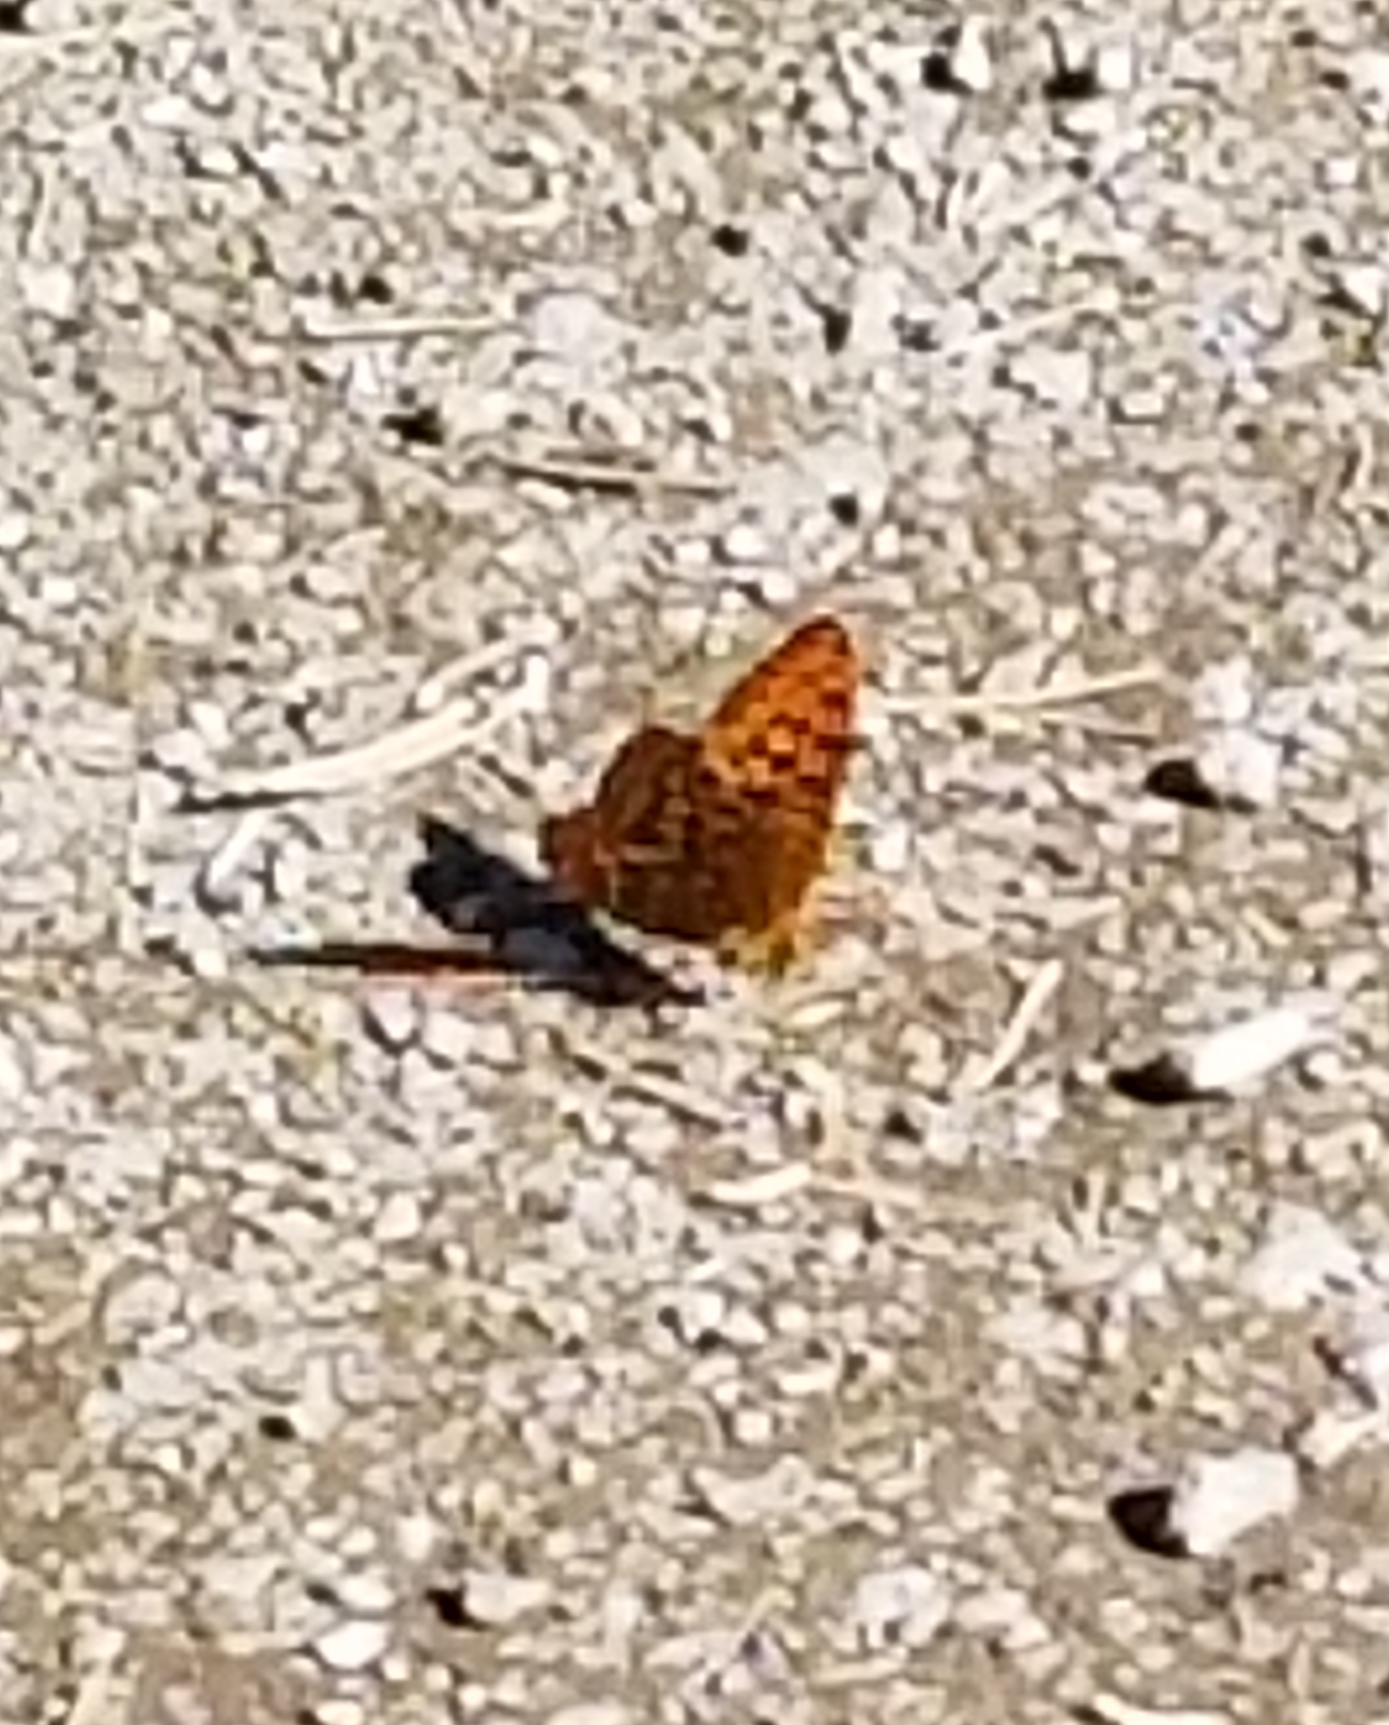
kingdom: Animalia
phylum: Arthropoda
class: Insecta
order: Lepidoptera
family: Nymphalidae
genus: Nymphalis
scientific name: Nymphalis californica
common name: California tortoiseshell
